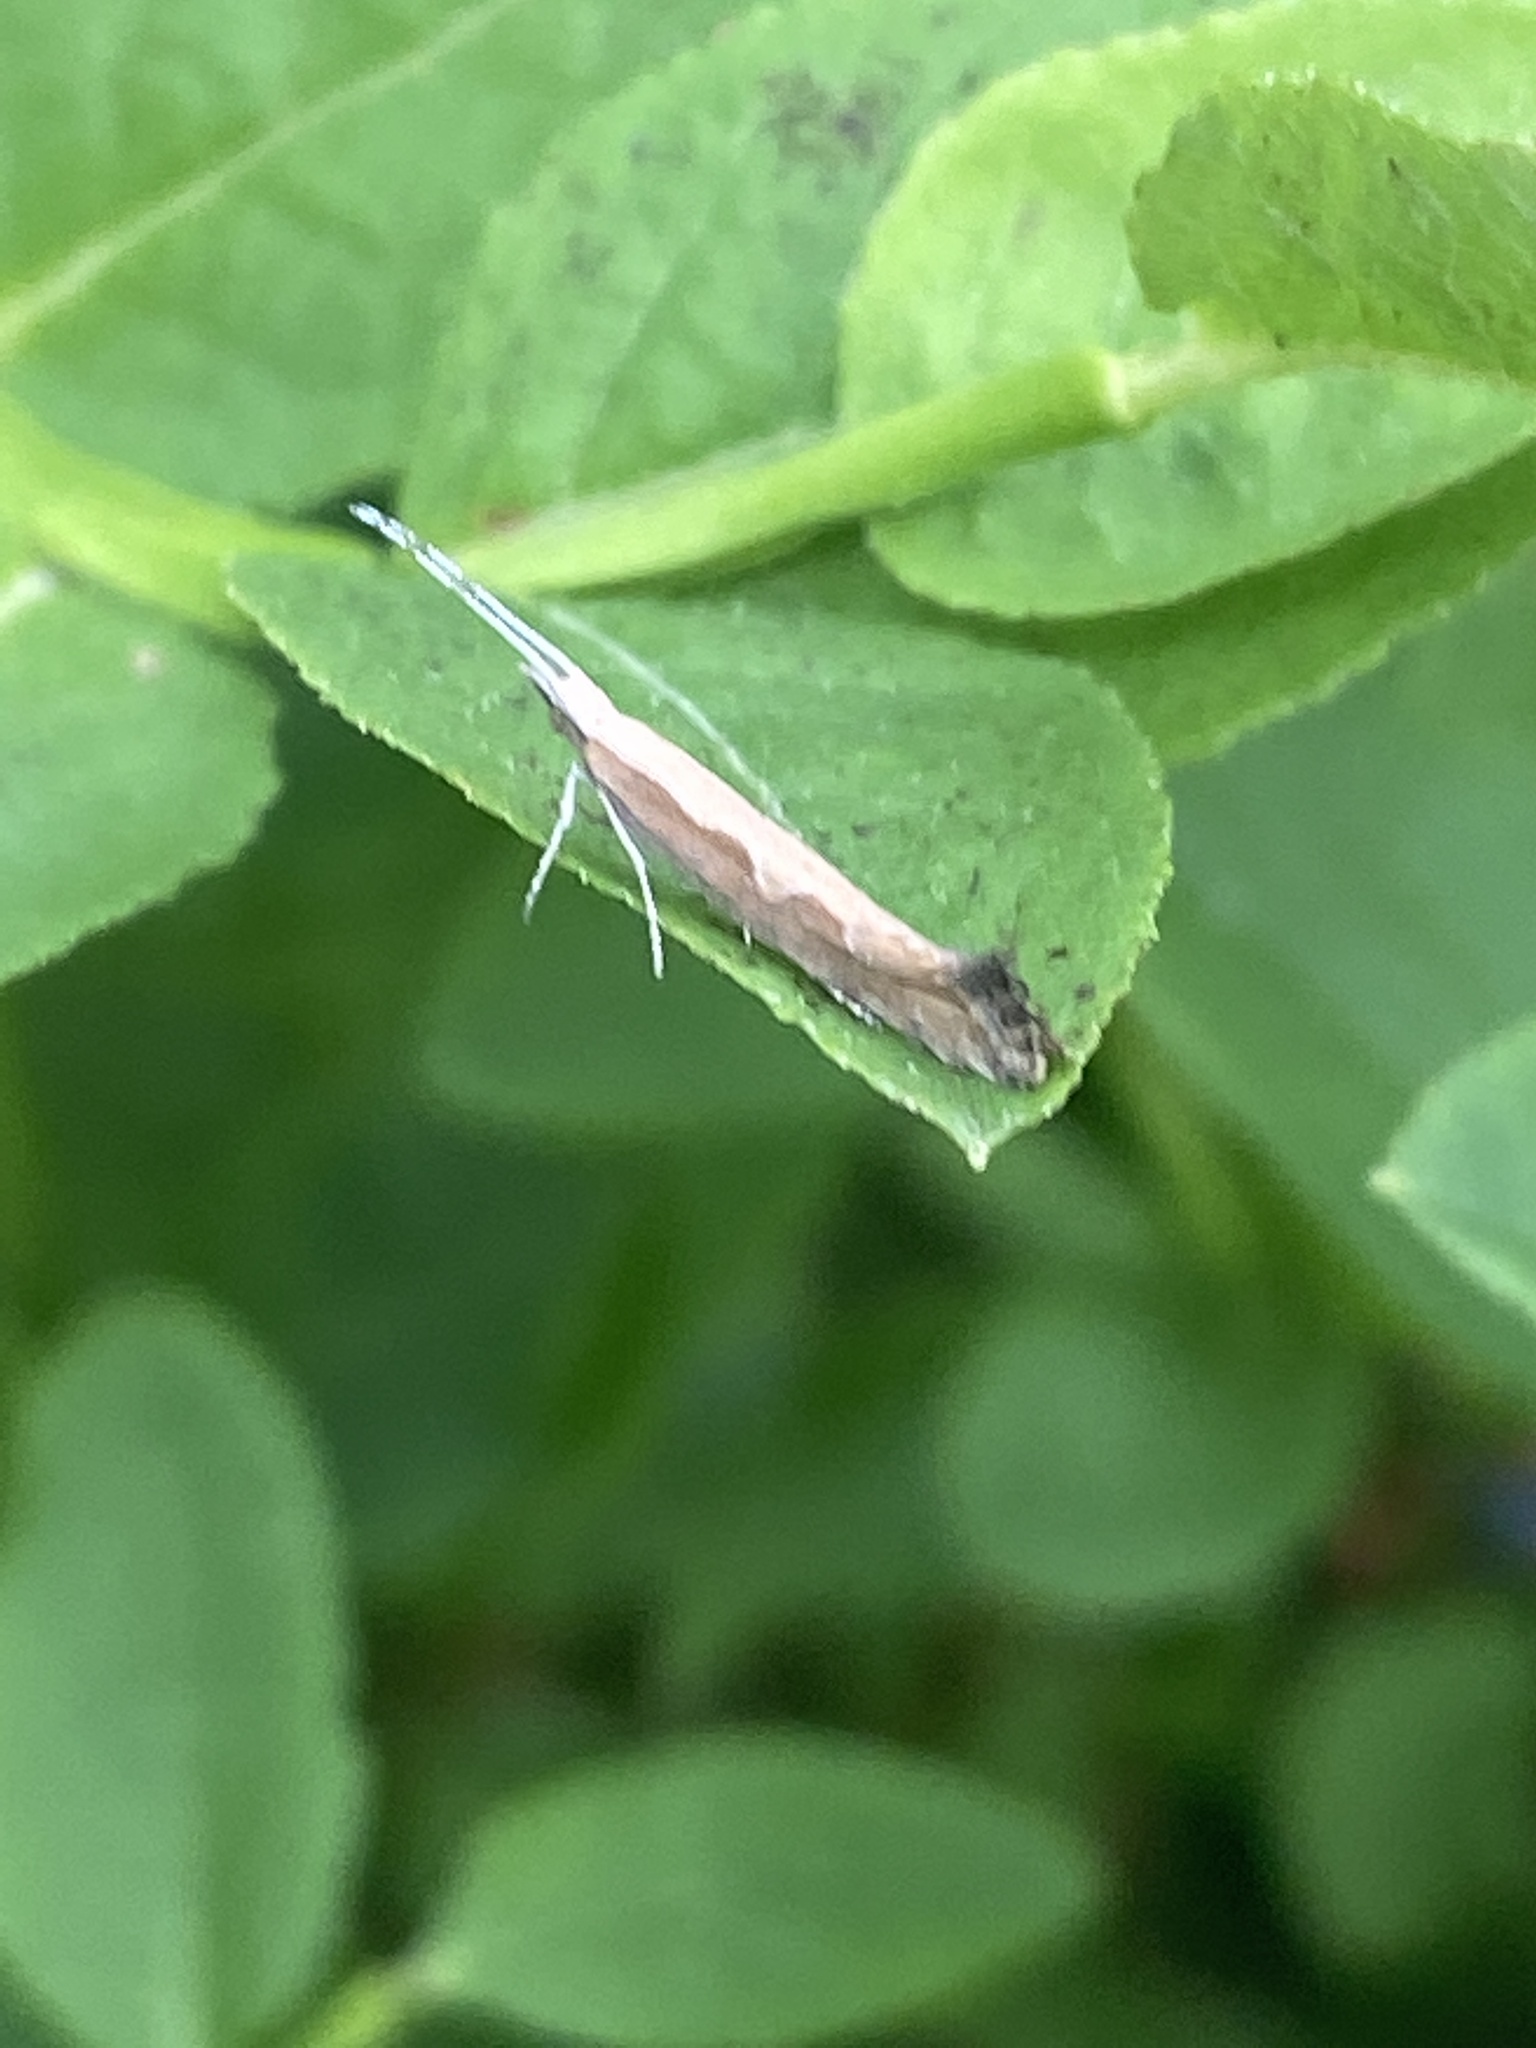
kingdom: Animalia
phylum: Arthropoda
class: Insecta
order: Lepidoptera
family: Plutellidae
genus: Plutella
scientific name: Plutella xylostella
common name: Diamond-back moth
